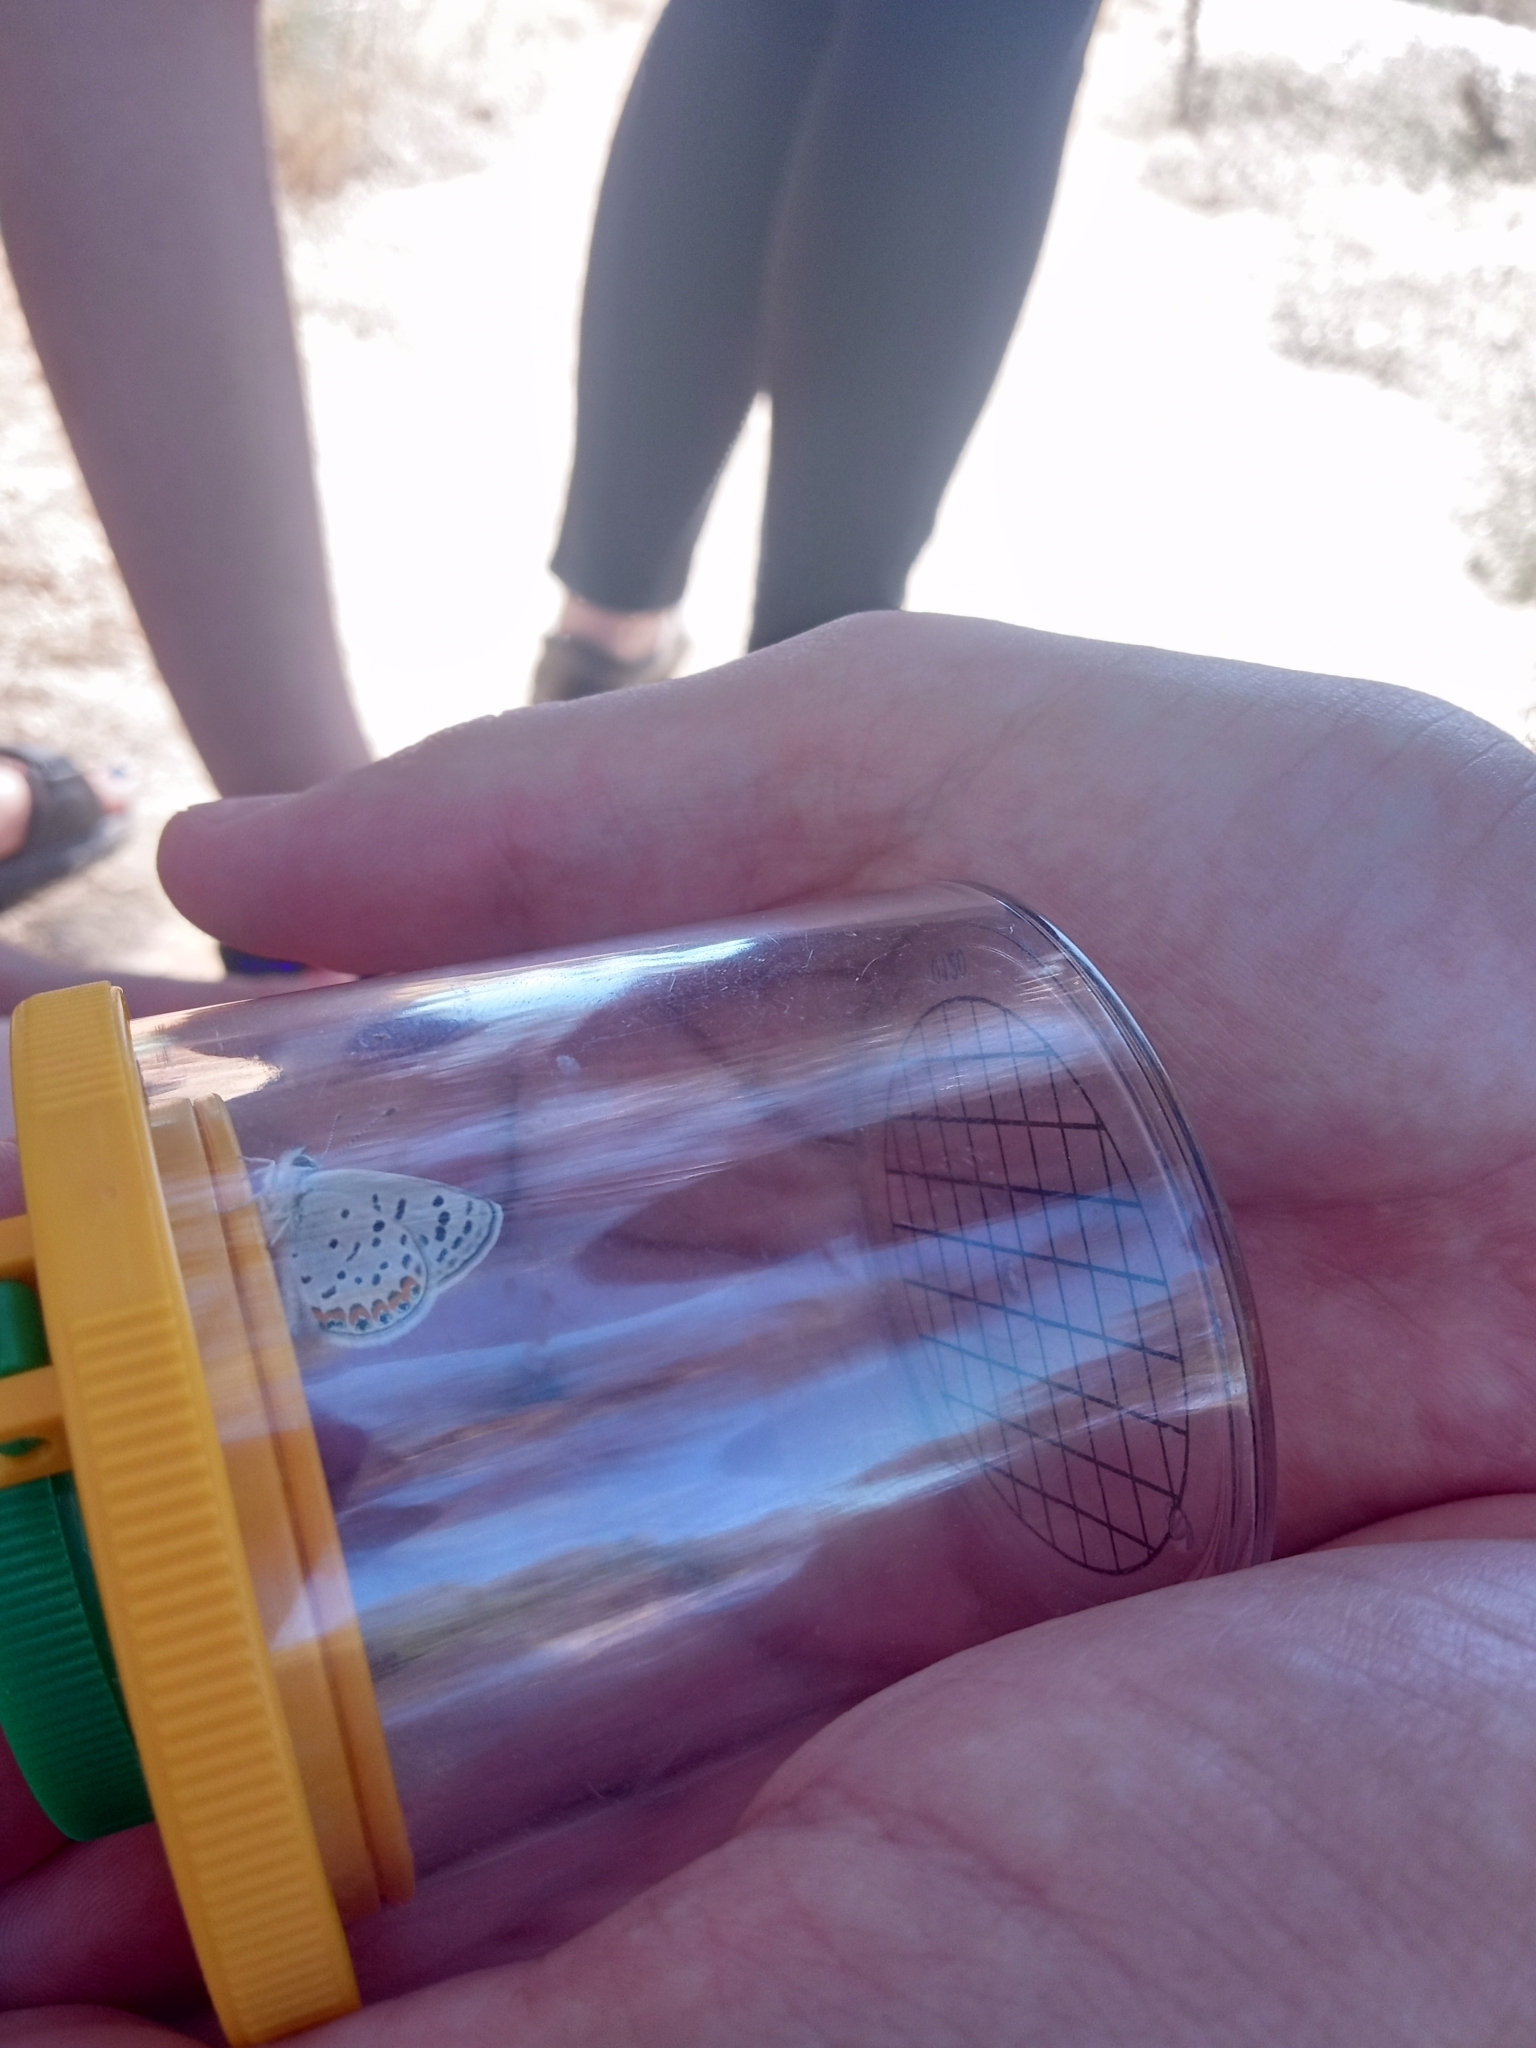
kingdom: Animalia
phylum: Arthropoda
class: Insecta
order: Lepidoptera
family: Lycaenidae
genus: Icaricia
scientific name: Icaricia acmon
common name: Acmon blue
